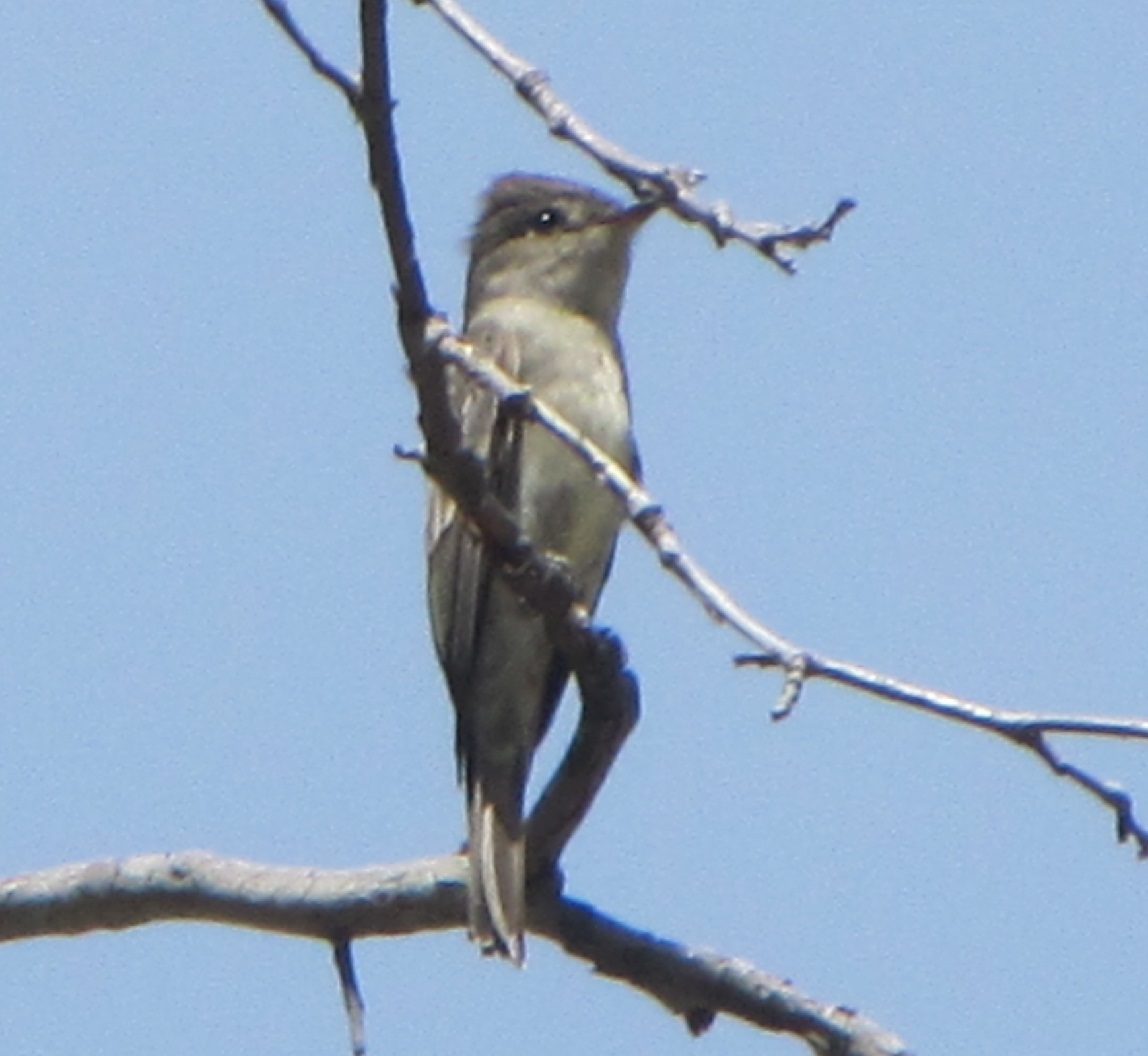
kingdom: Animalia
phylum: Chordata
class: Aves
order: Passeriformes
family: Tyrannidae
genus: Contopus
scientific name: Contopus sordidulus
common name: Western wood-pewee
